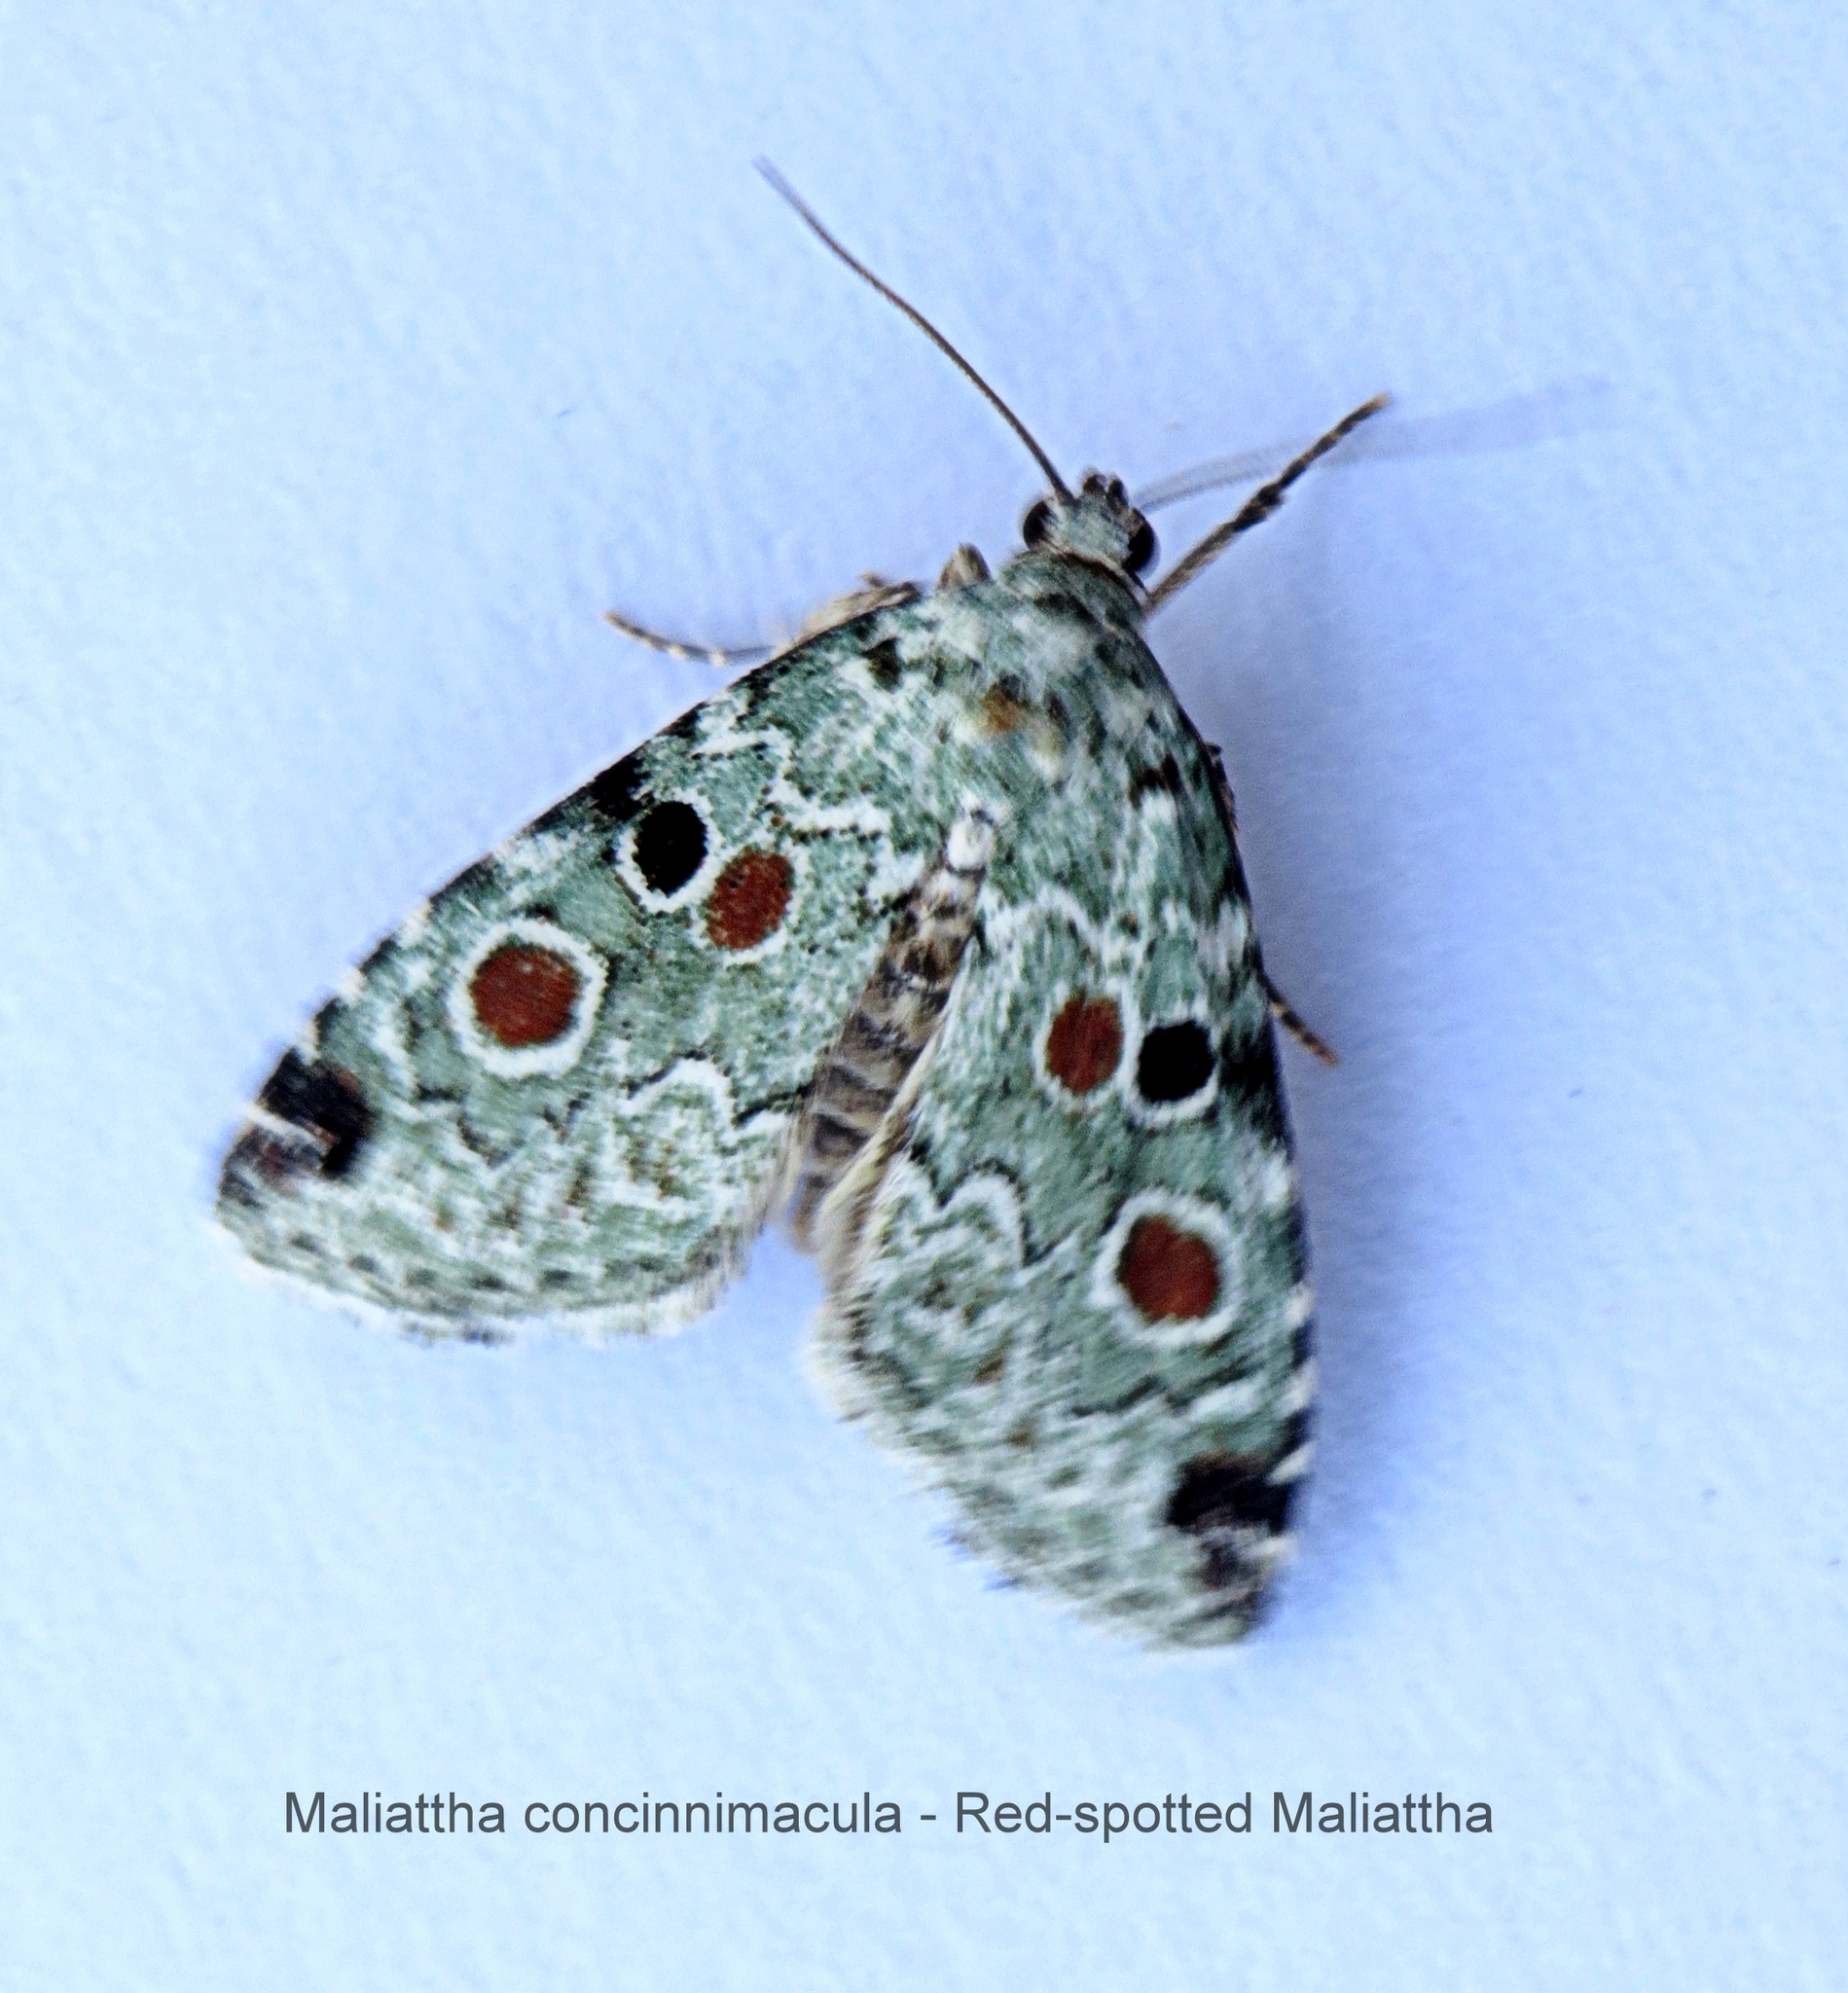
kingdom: Animalia
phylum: Arthropoda
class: Insecta
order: Lepidoptera
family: Noctuidae
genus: Maliattha
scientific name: Maliattha concinnimacula
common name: Red-spotted glyph
